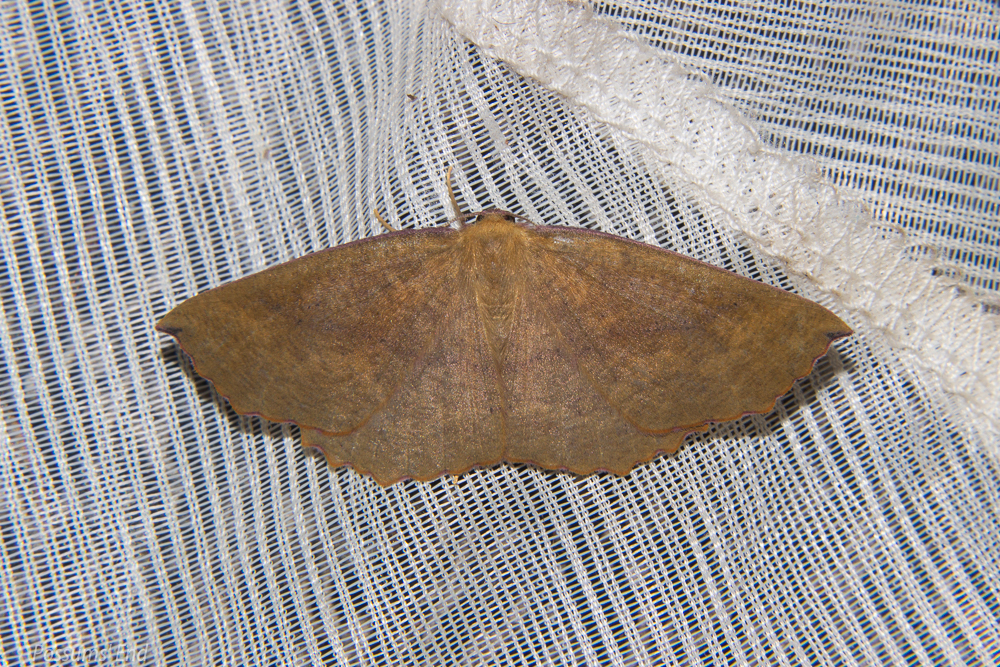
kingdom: Animalia
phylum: Arthropoda
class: Insecta
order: Lepidoptera
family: Geometridae
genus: Xyridacma
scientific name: Xyridacma alectoraria
